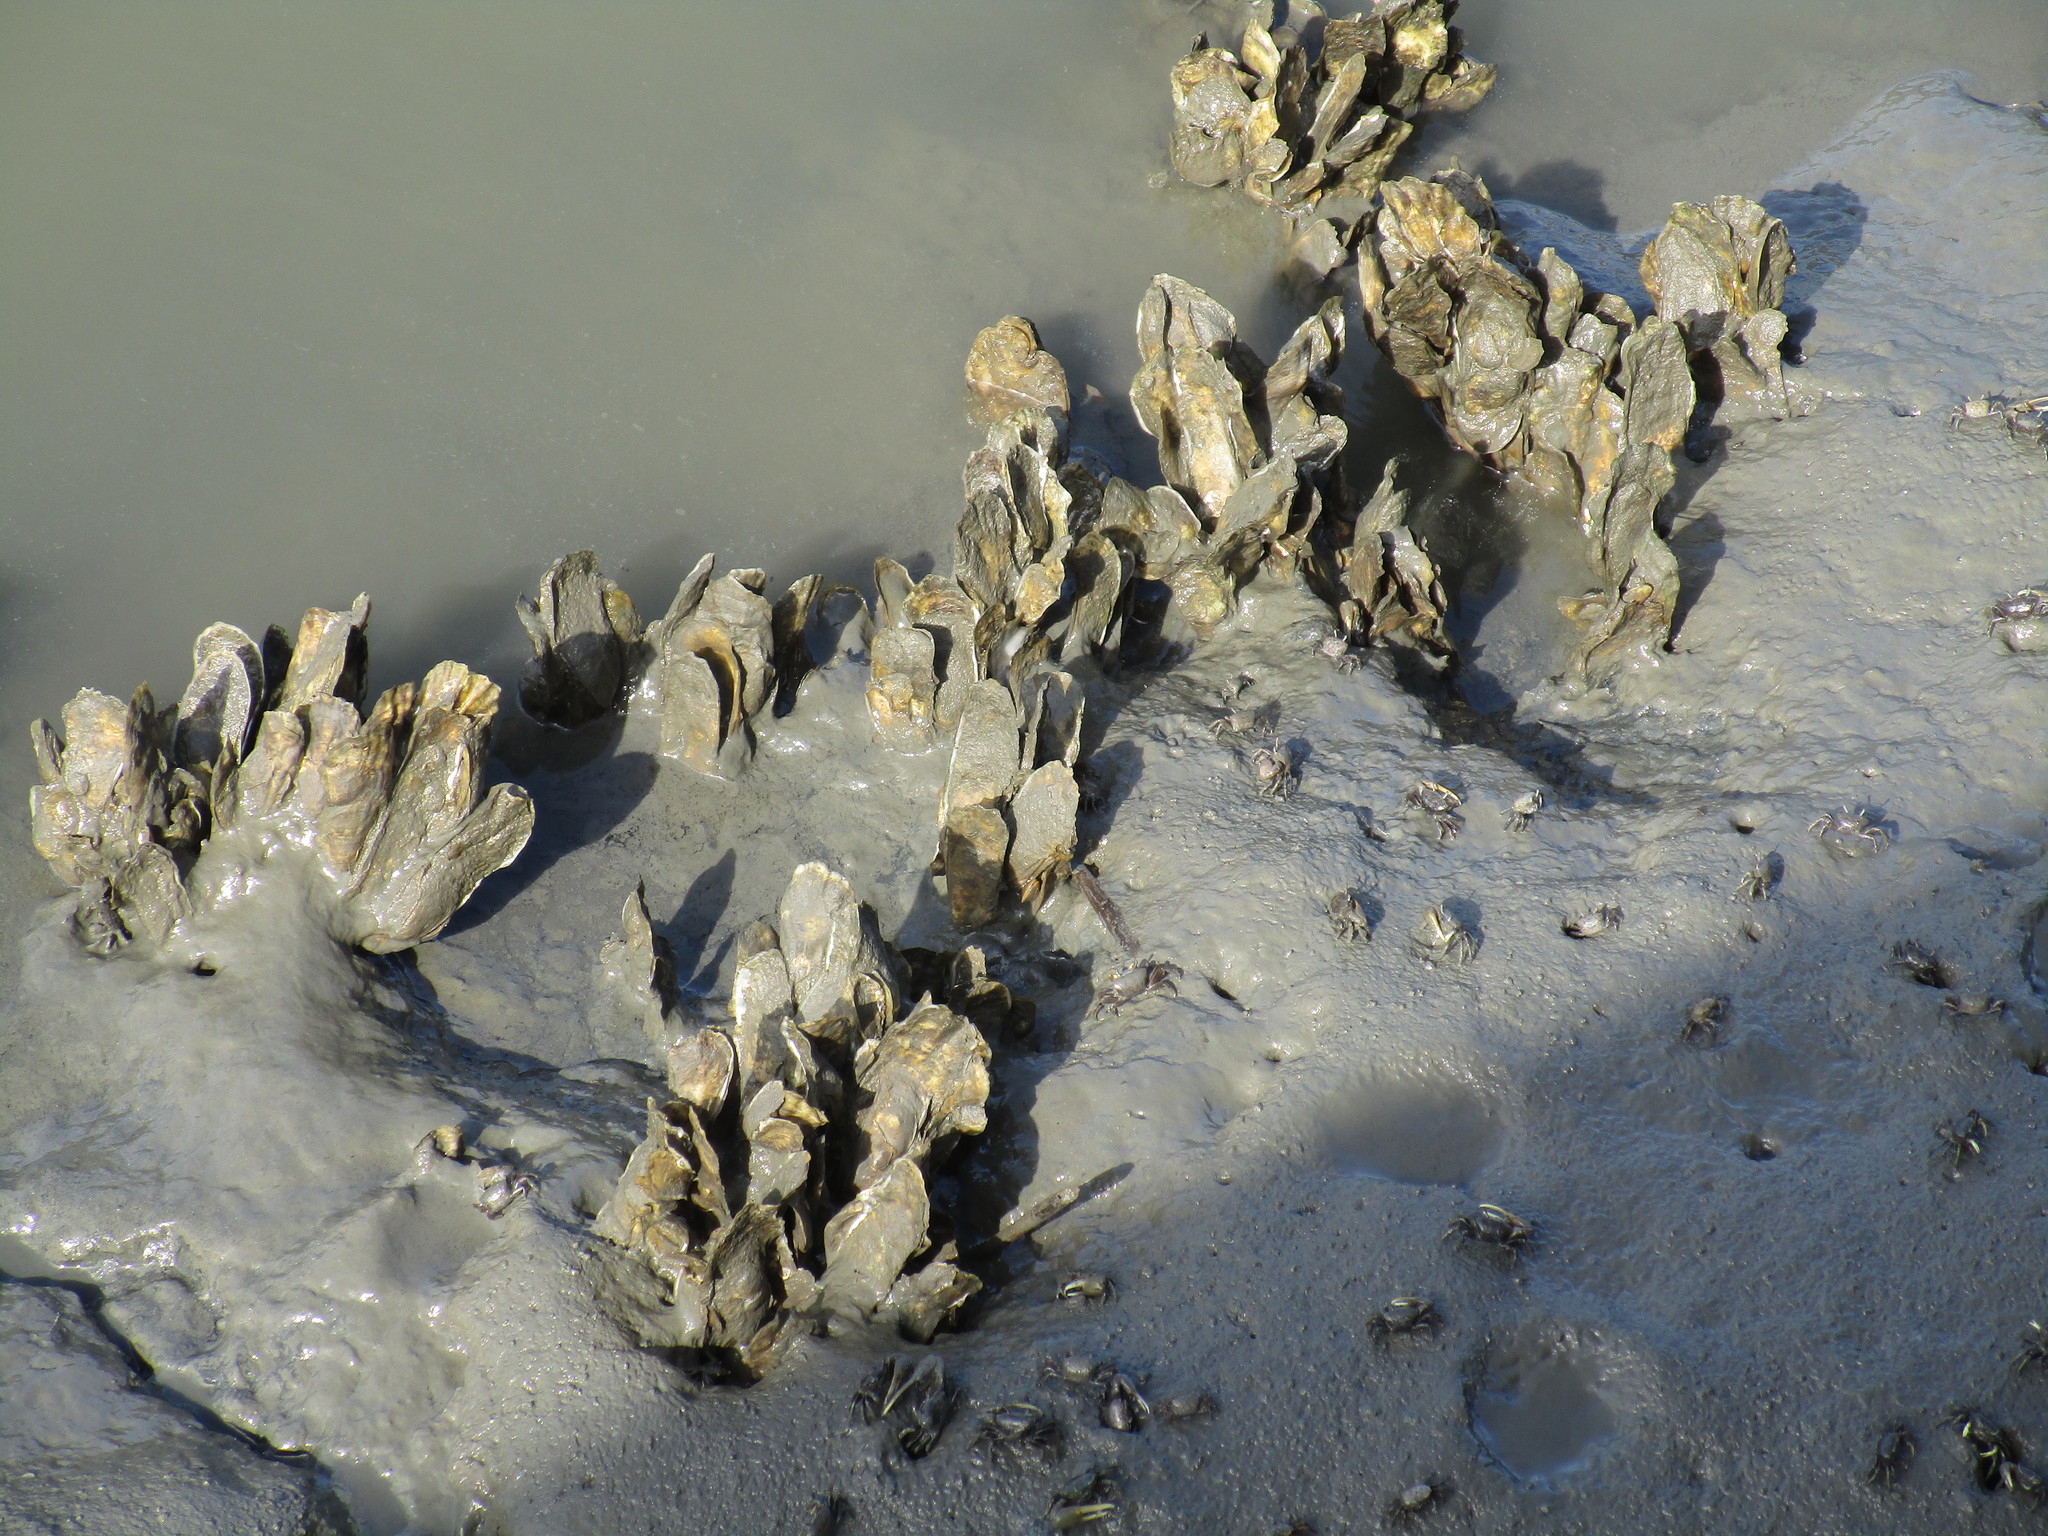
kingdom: Animalia
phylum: Mollusca
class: Bivalvia
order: Ostreida
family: Ostreidae
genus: Crassostrea
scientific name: Crassostrea virginica
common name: American oyster
